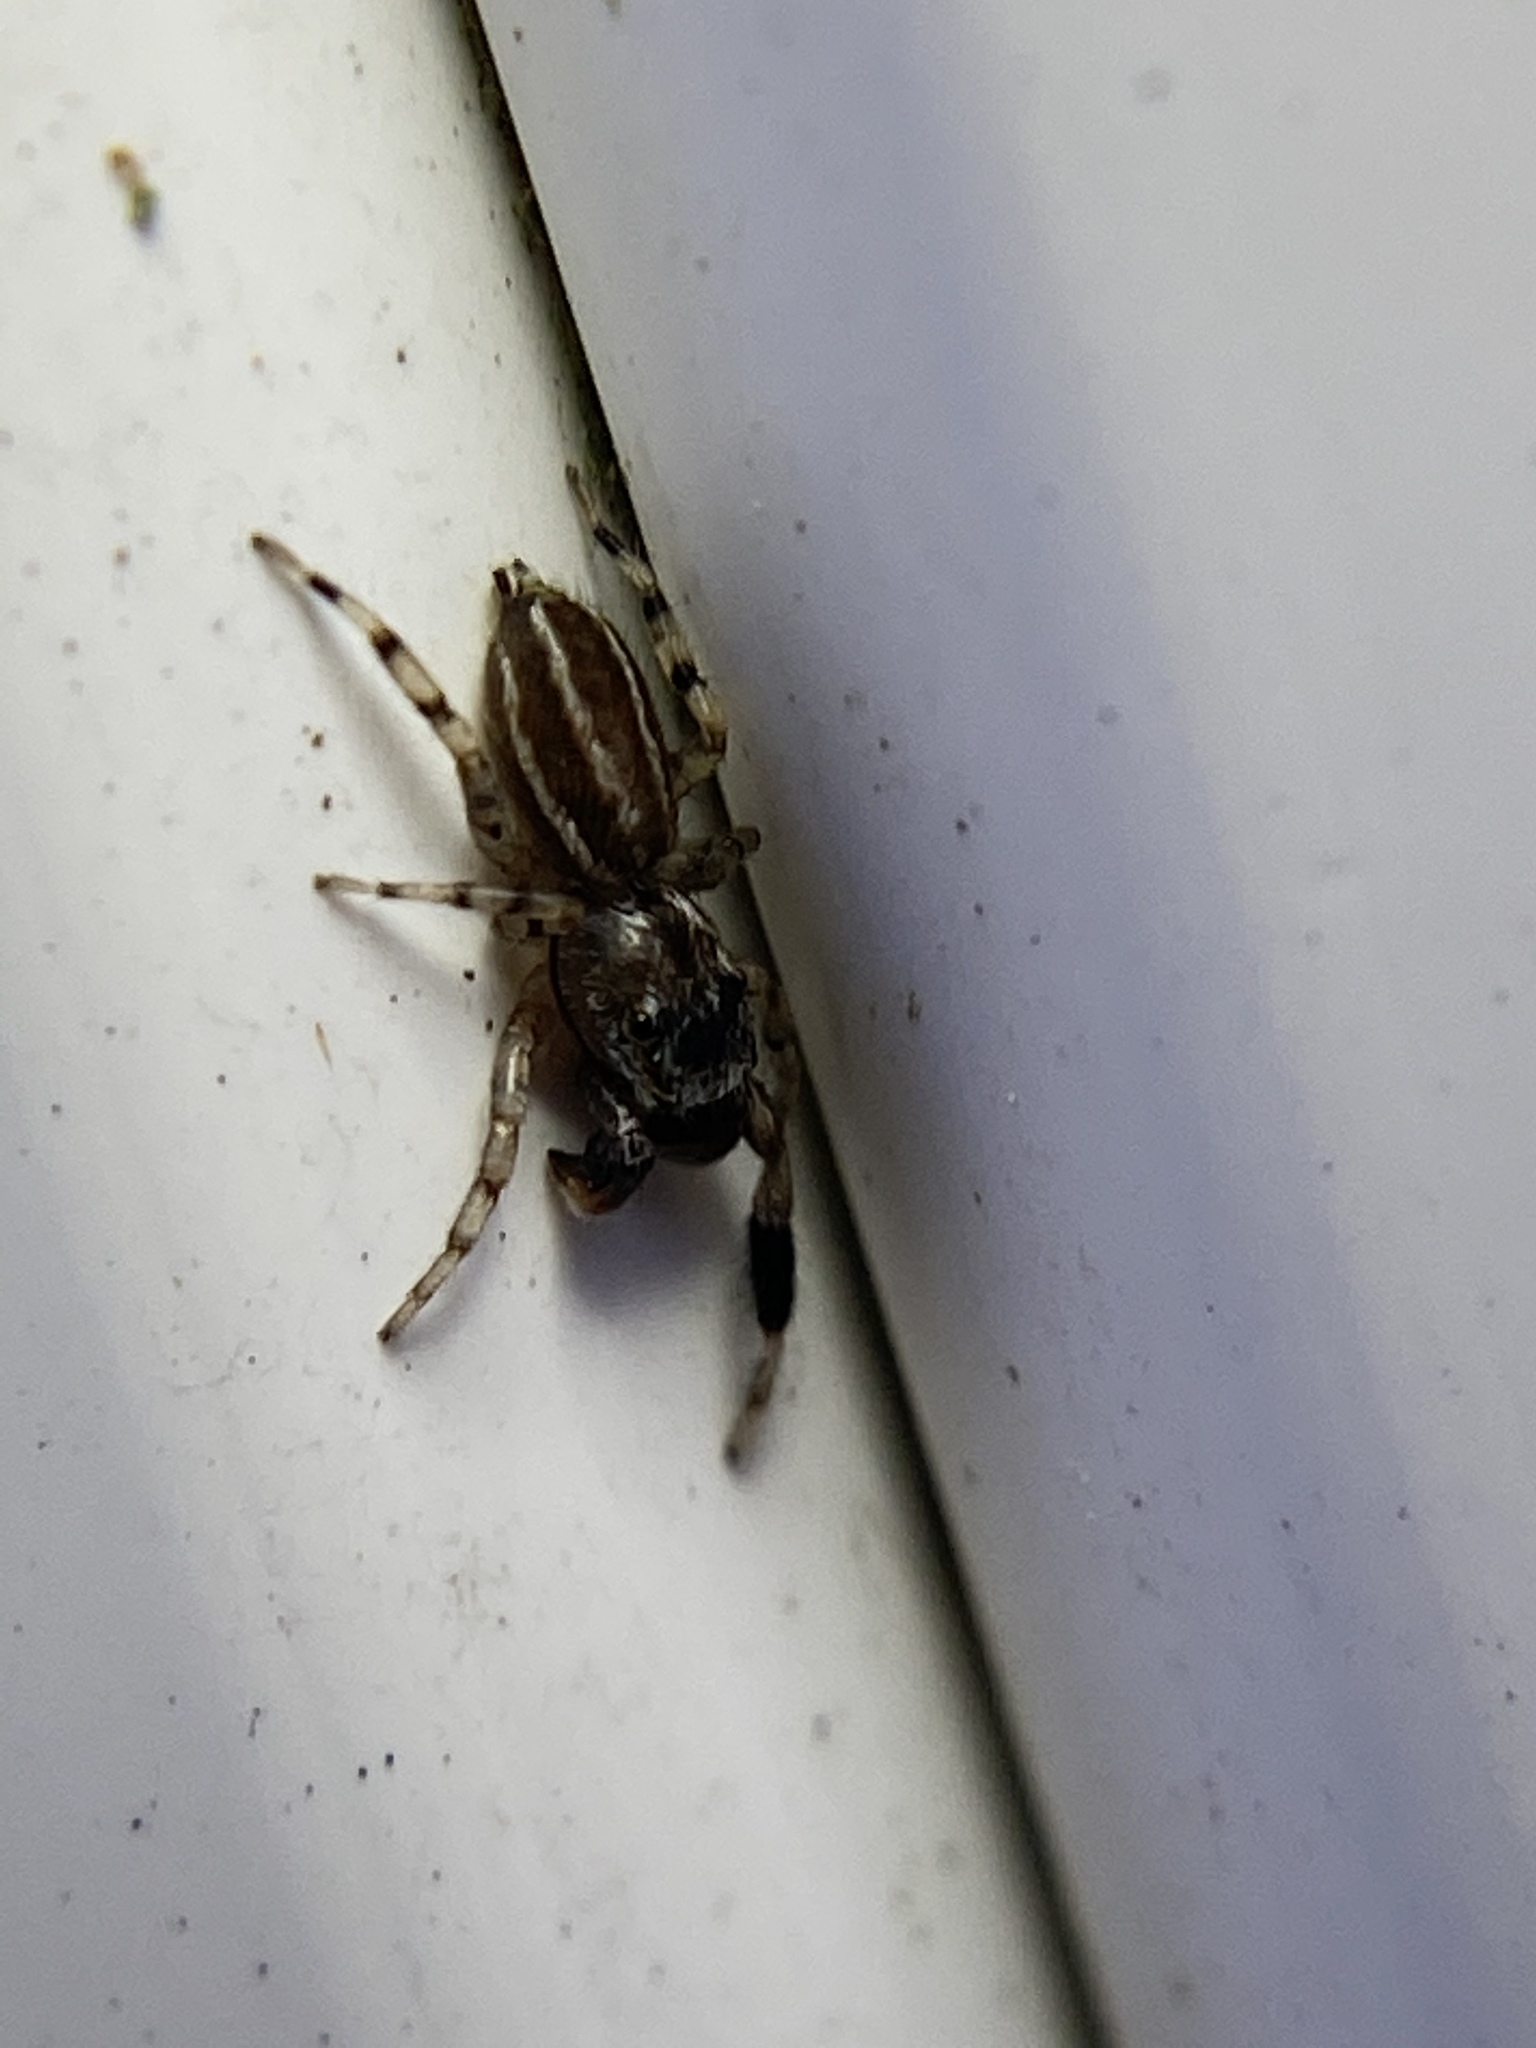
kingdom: Animalia
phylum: Arthropoda
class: Arachnida
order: Araneae
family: Salticidae
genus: Marpissa
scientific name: Marpissa lineata
